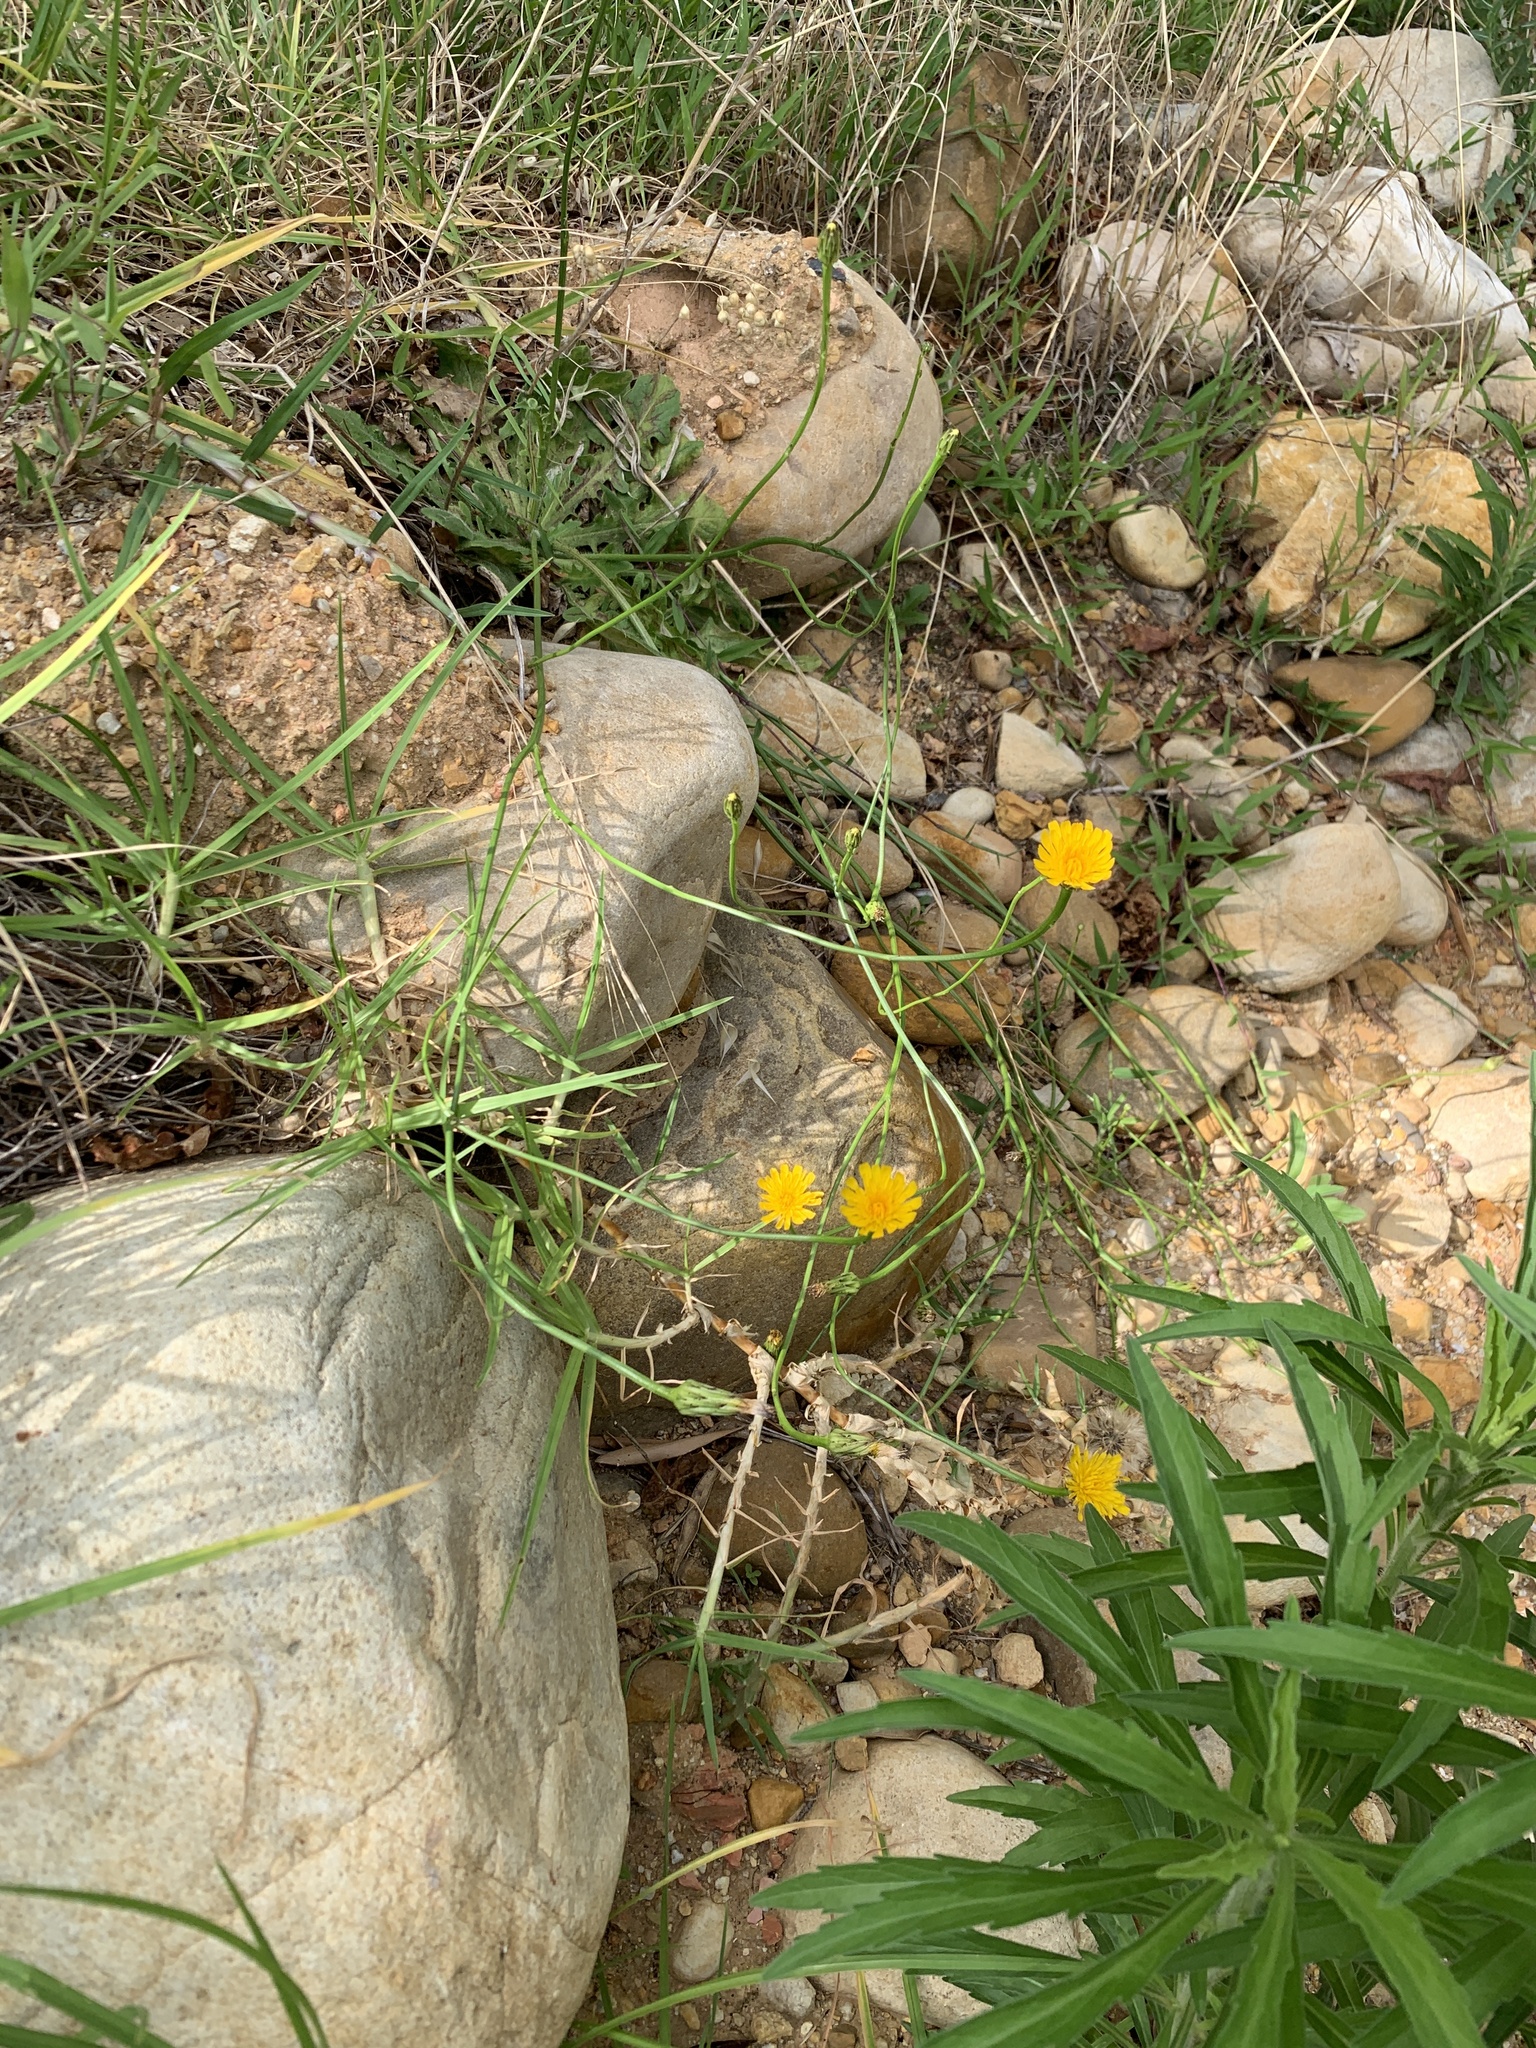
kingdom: Plantae
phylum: Tracheophyta
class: Magnoliopsida
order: Asterales
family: Asteraceae
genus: Hypochaeris
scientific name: Hypochaeris radicata
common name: Flatweed
